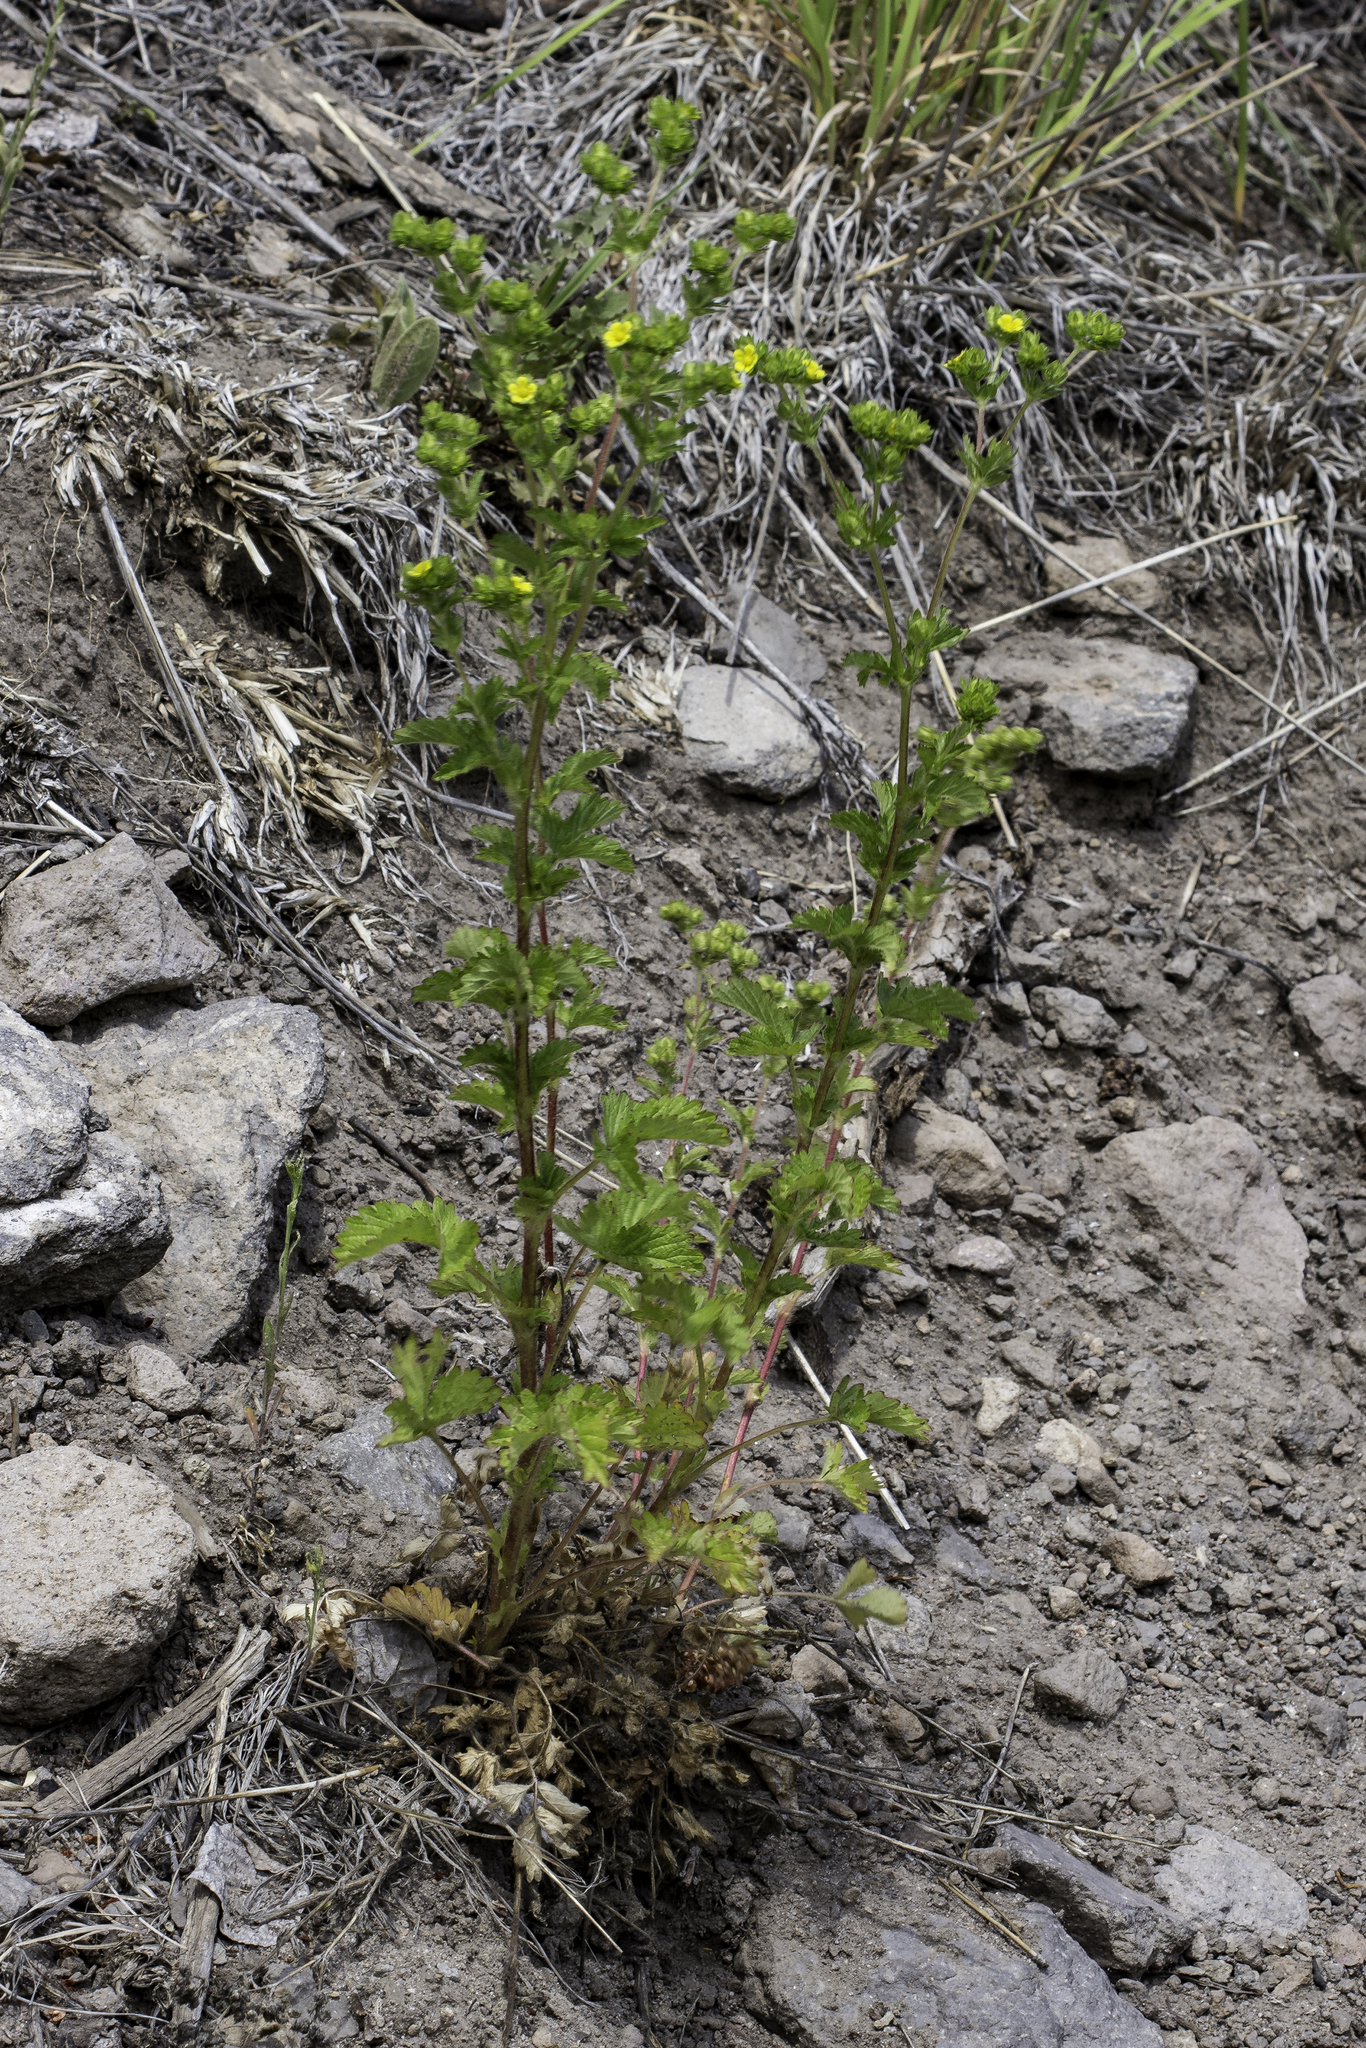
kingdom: Plantae
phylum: Tracheophyta
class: Magnoliopsida
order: Rosales
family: Rosaceae
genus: Potentilla
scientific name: Potentilla norvegica
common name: Ternate-leaved cinquefoil
